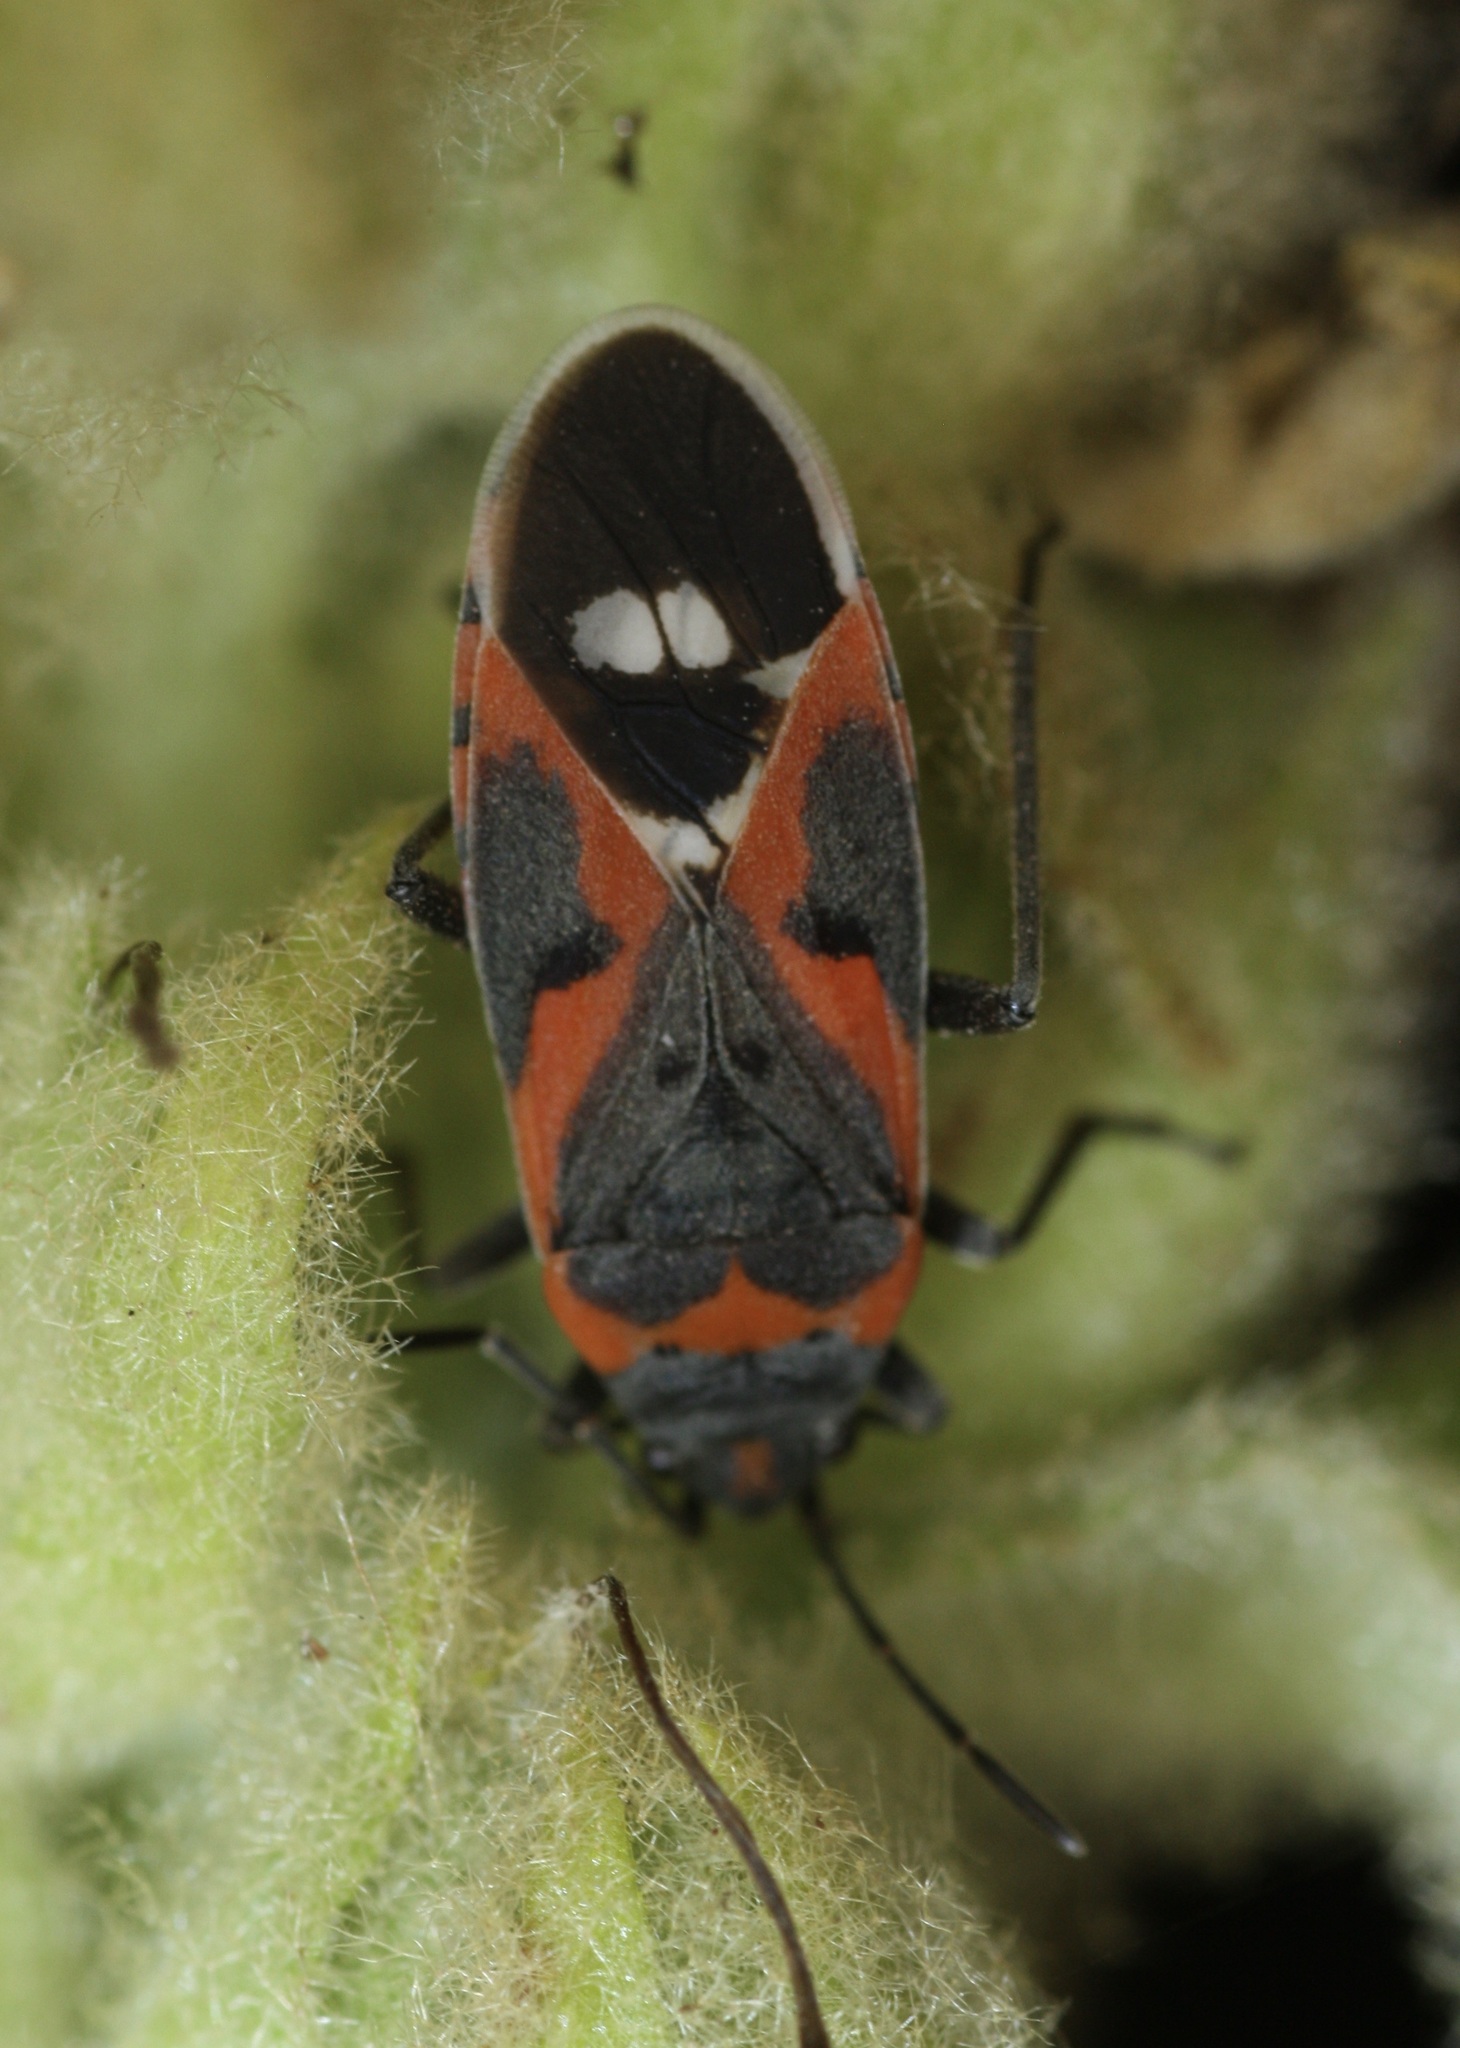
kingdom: Animalia
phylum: Arthropoda
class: Insecta
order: Hemiptera
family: Lygaeidae
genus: Lygaeus
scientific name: Lygaeus kalmii
